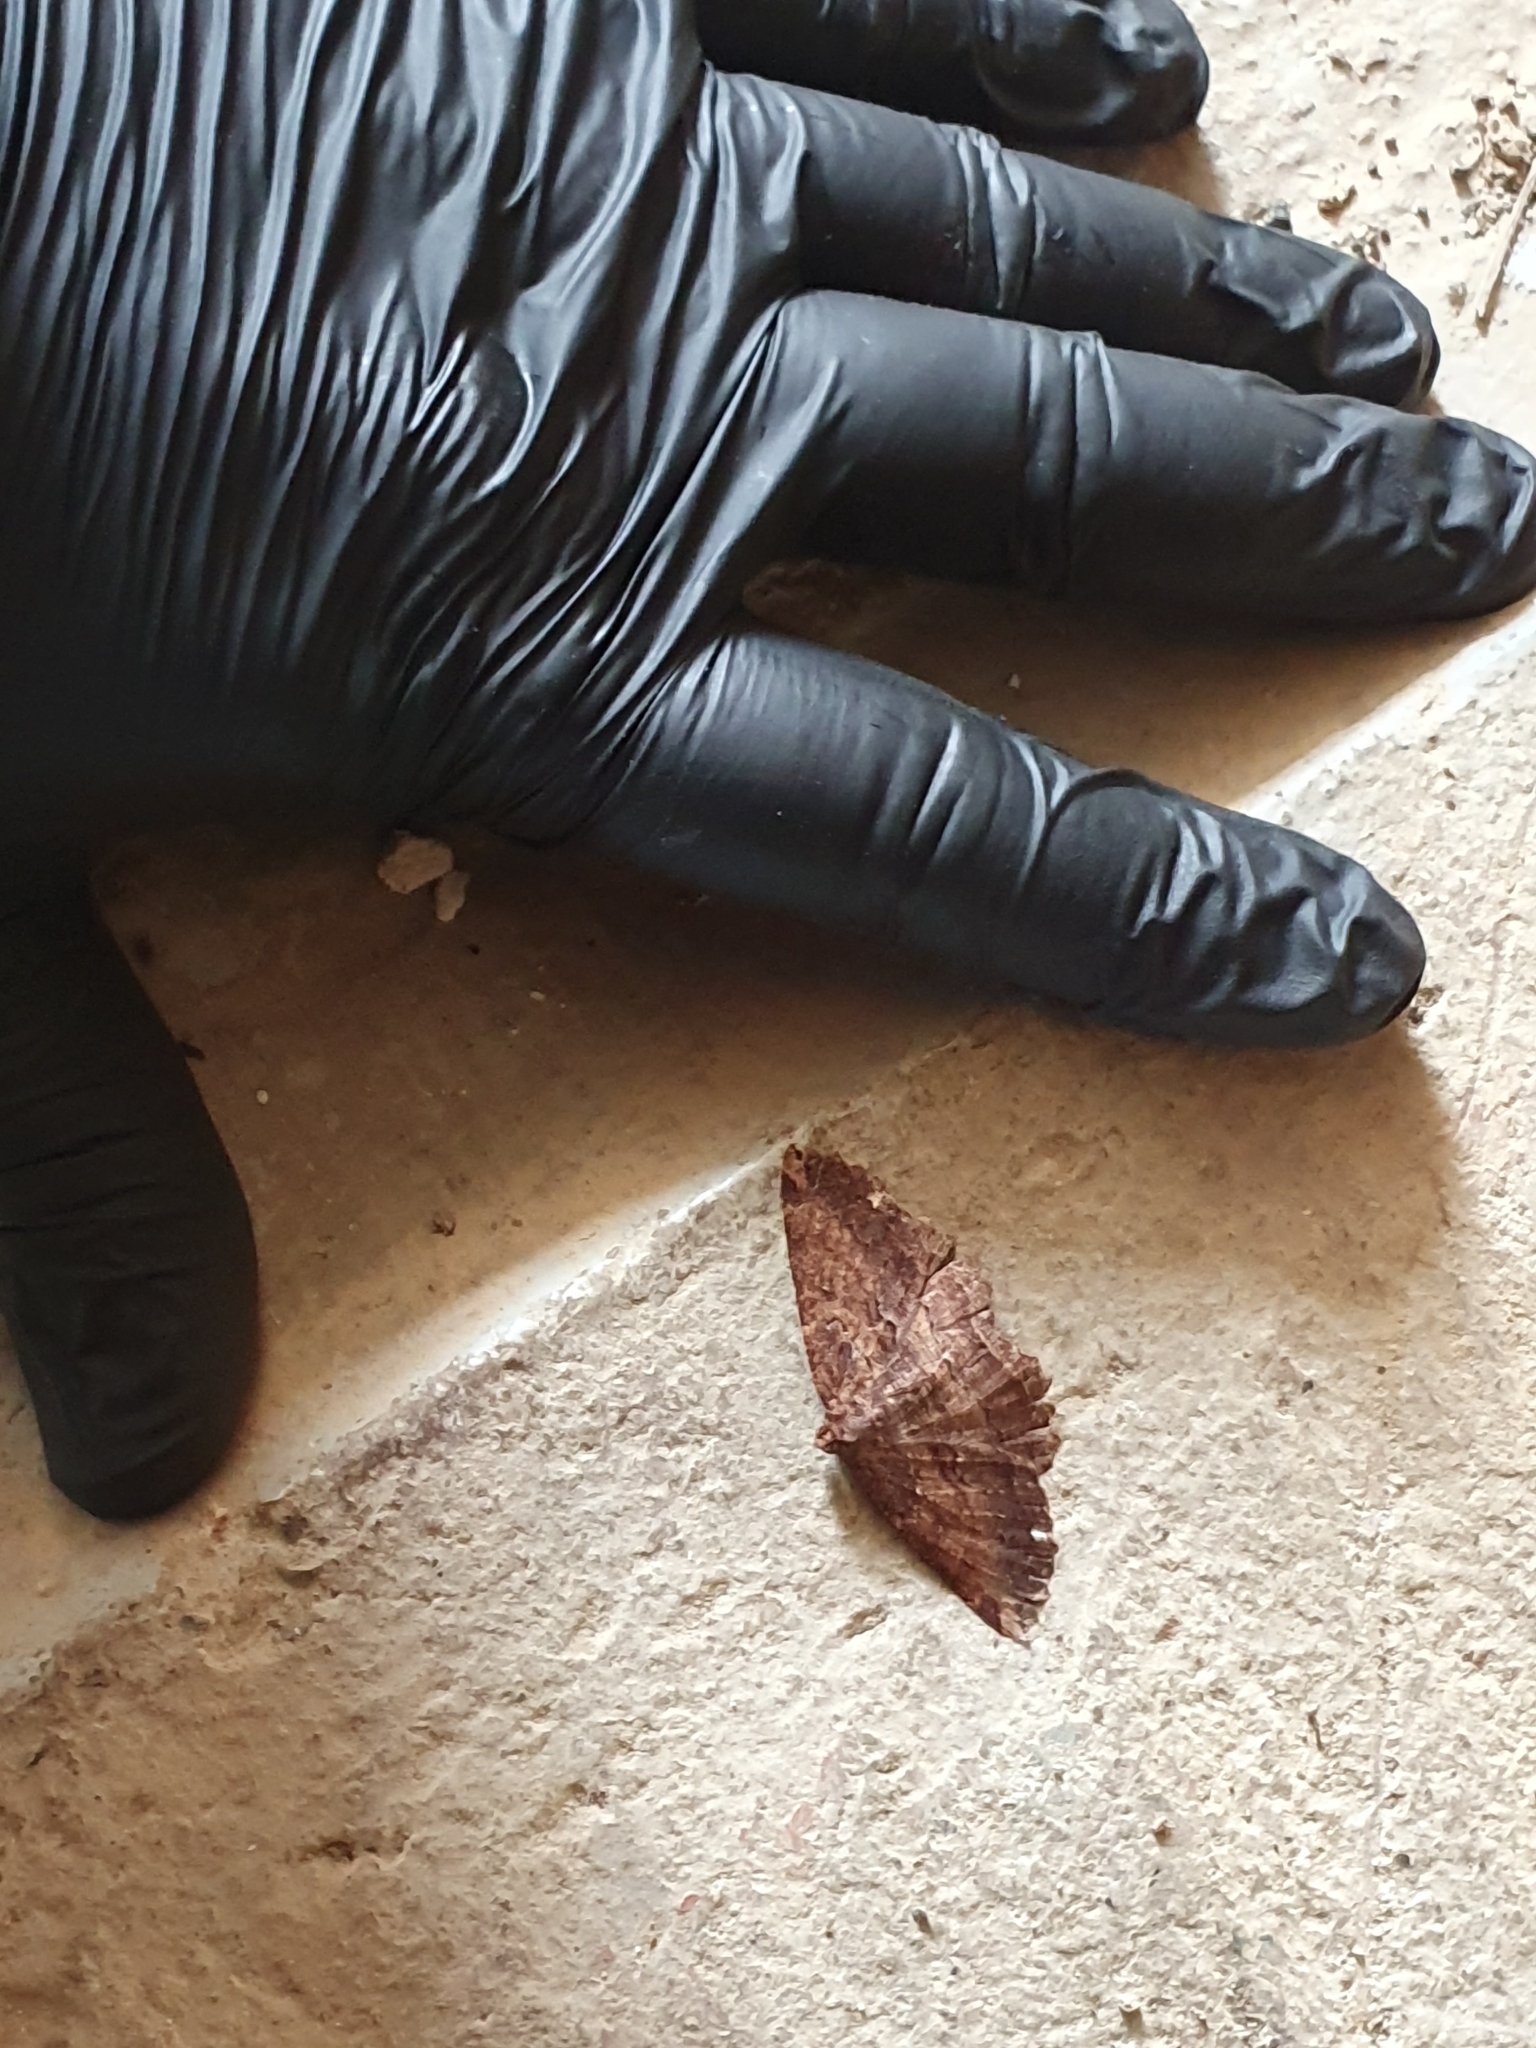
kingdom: Animalia
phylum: Arthropoda
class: Insecta
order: Lepidoptera
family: Geometridae
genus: Gellonia
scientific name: Gellonia dejectaria
